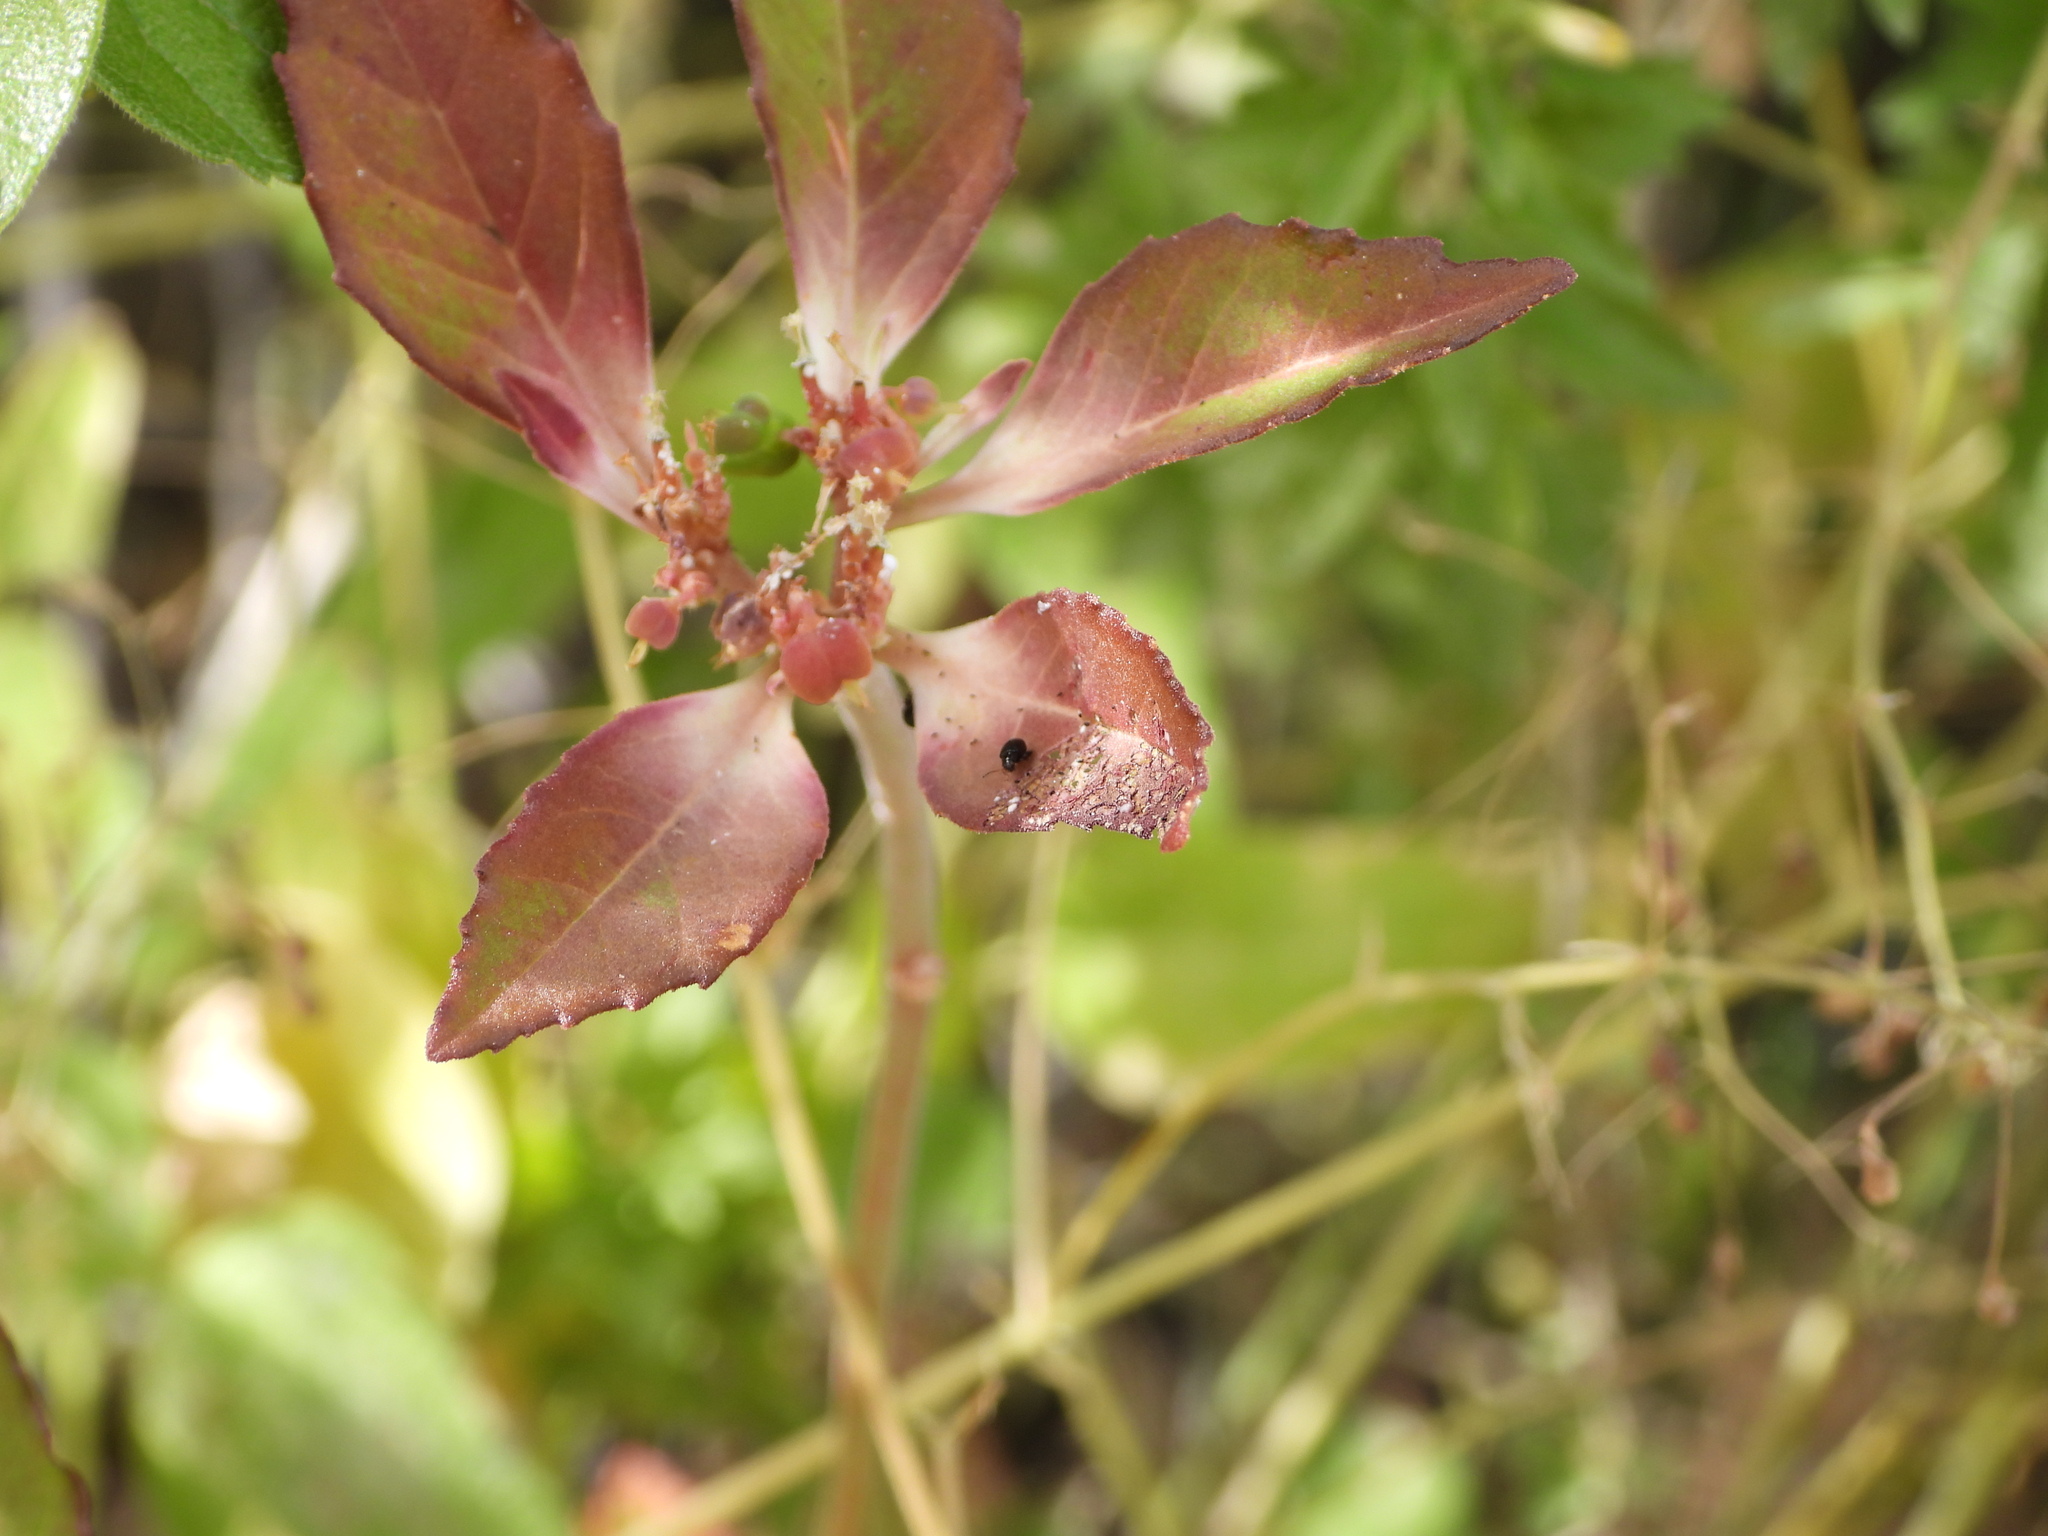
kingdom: Plantae
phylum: Tracheophyta
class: Magnoliopsida
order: Malpighiales
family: Euphorbiaceae
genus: Euphorbia
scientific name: Euphorbia davidii
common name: David's spurge
